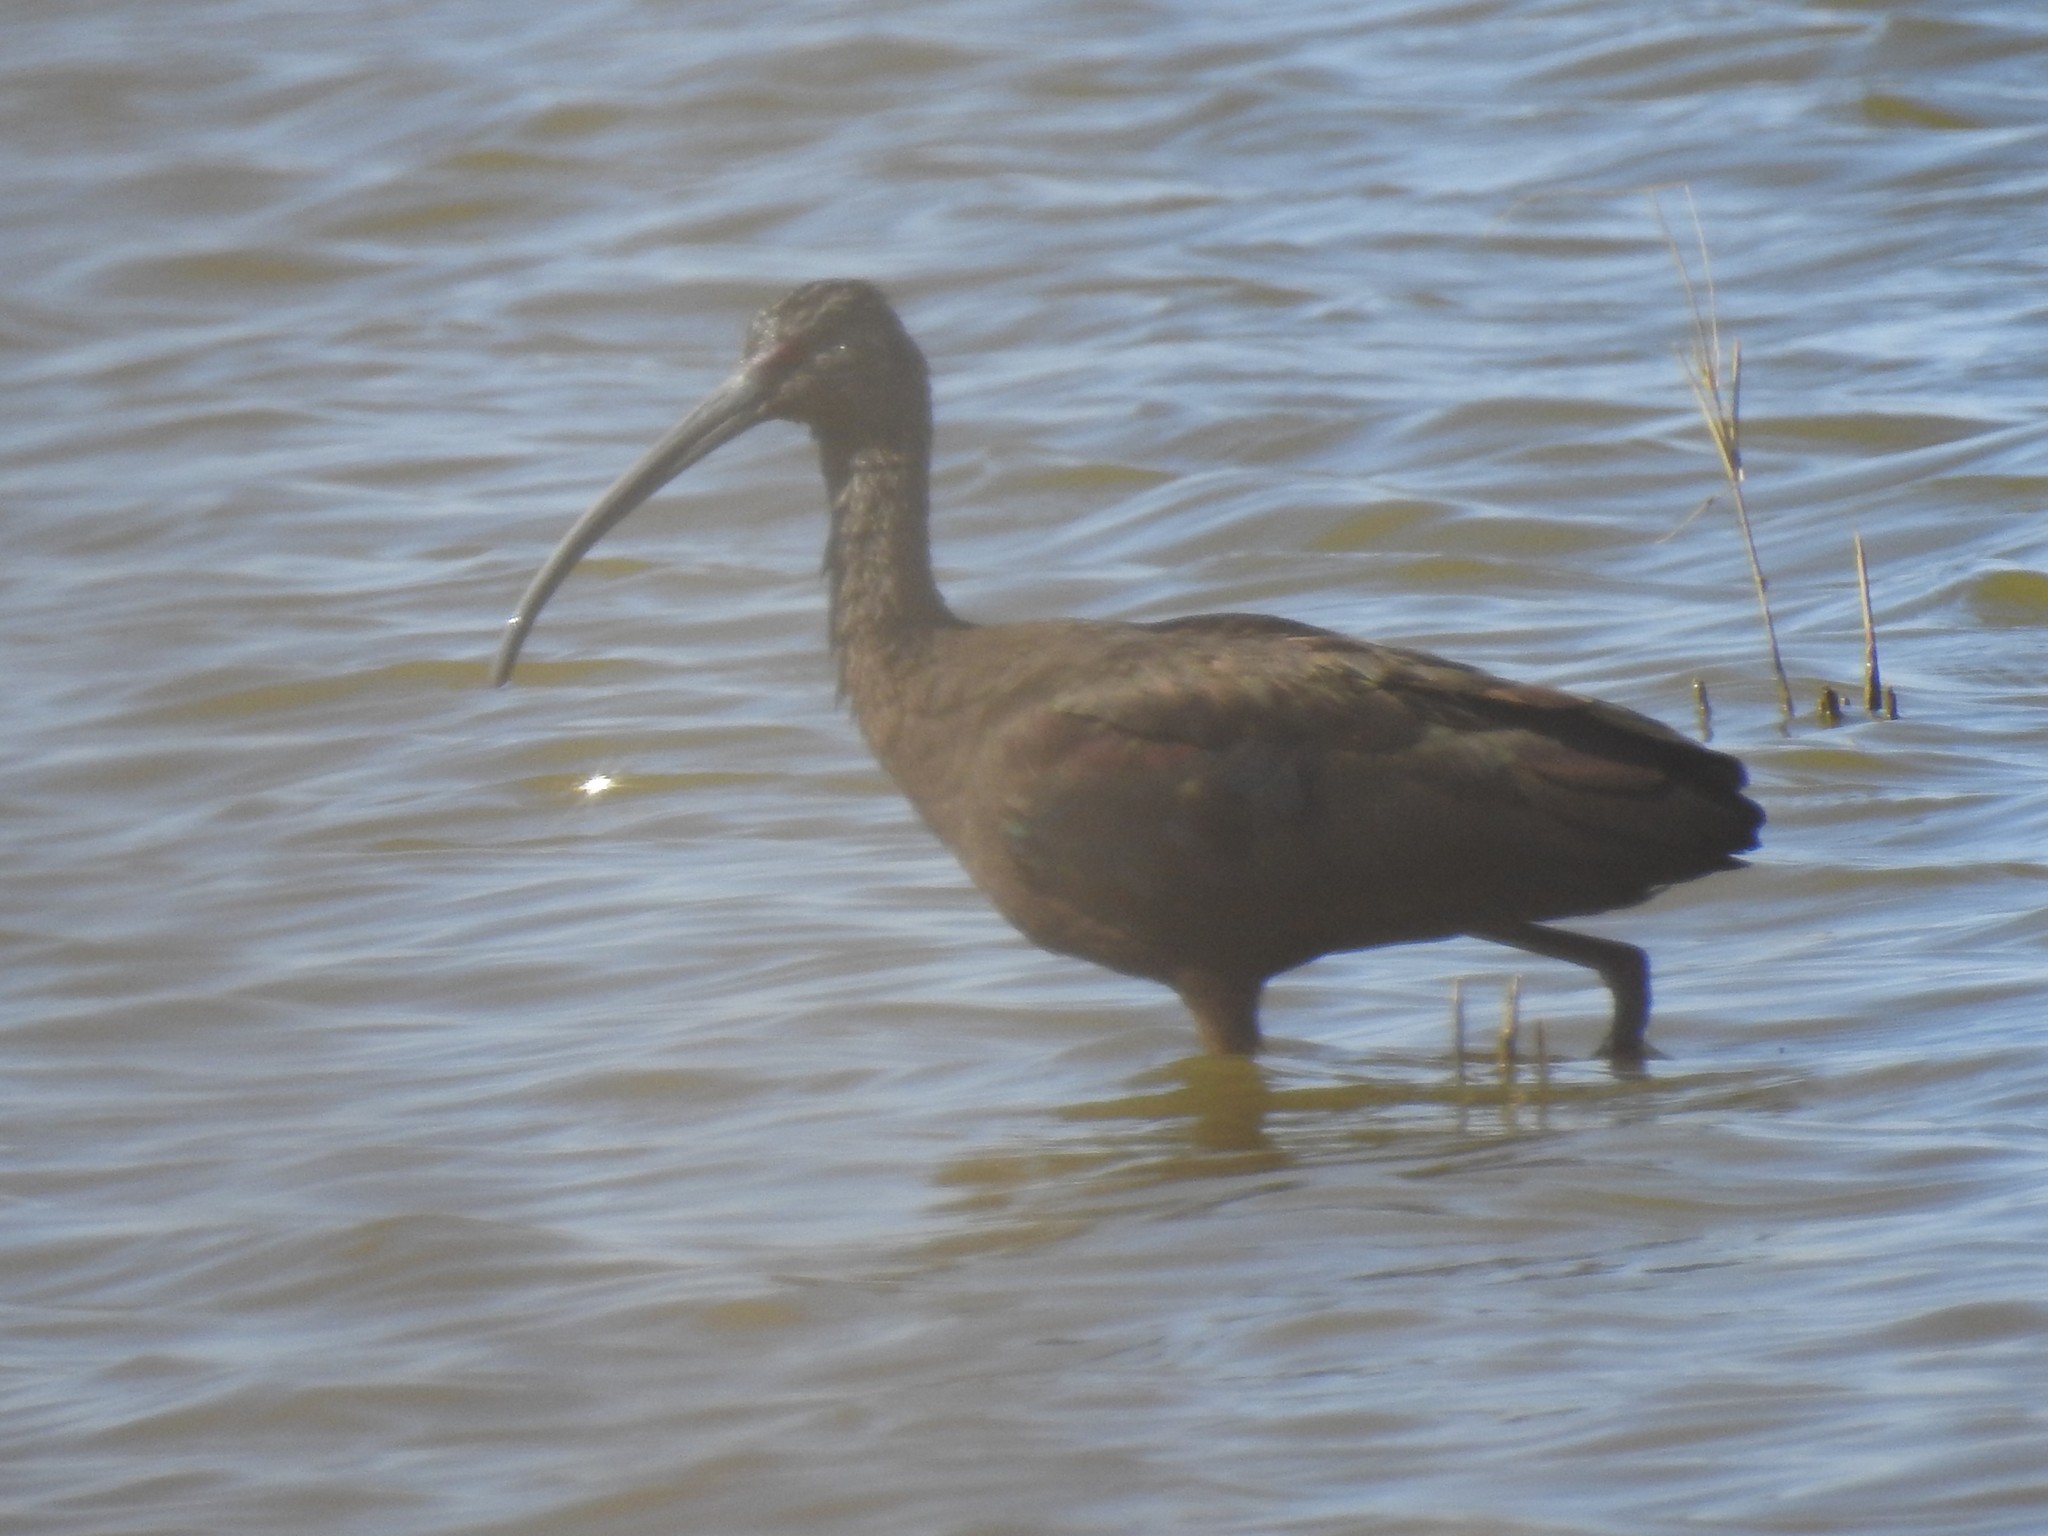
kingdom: Animalia
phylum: Chordata
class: Aves
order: Pelecaniformes
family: Threskiornithidae
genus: Plegadis
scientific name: Plegadis chihi
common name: White-faced ibis
